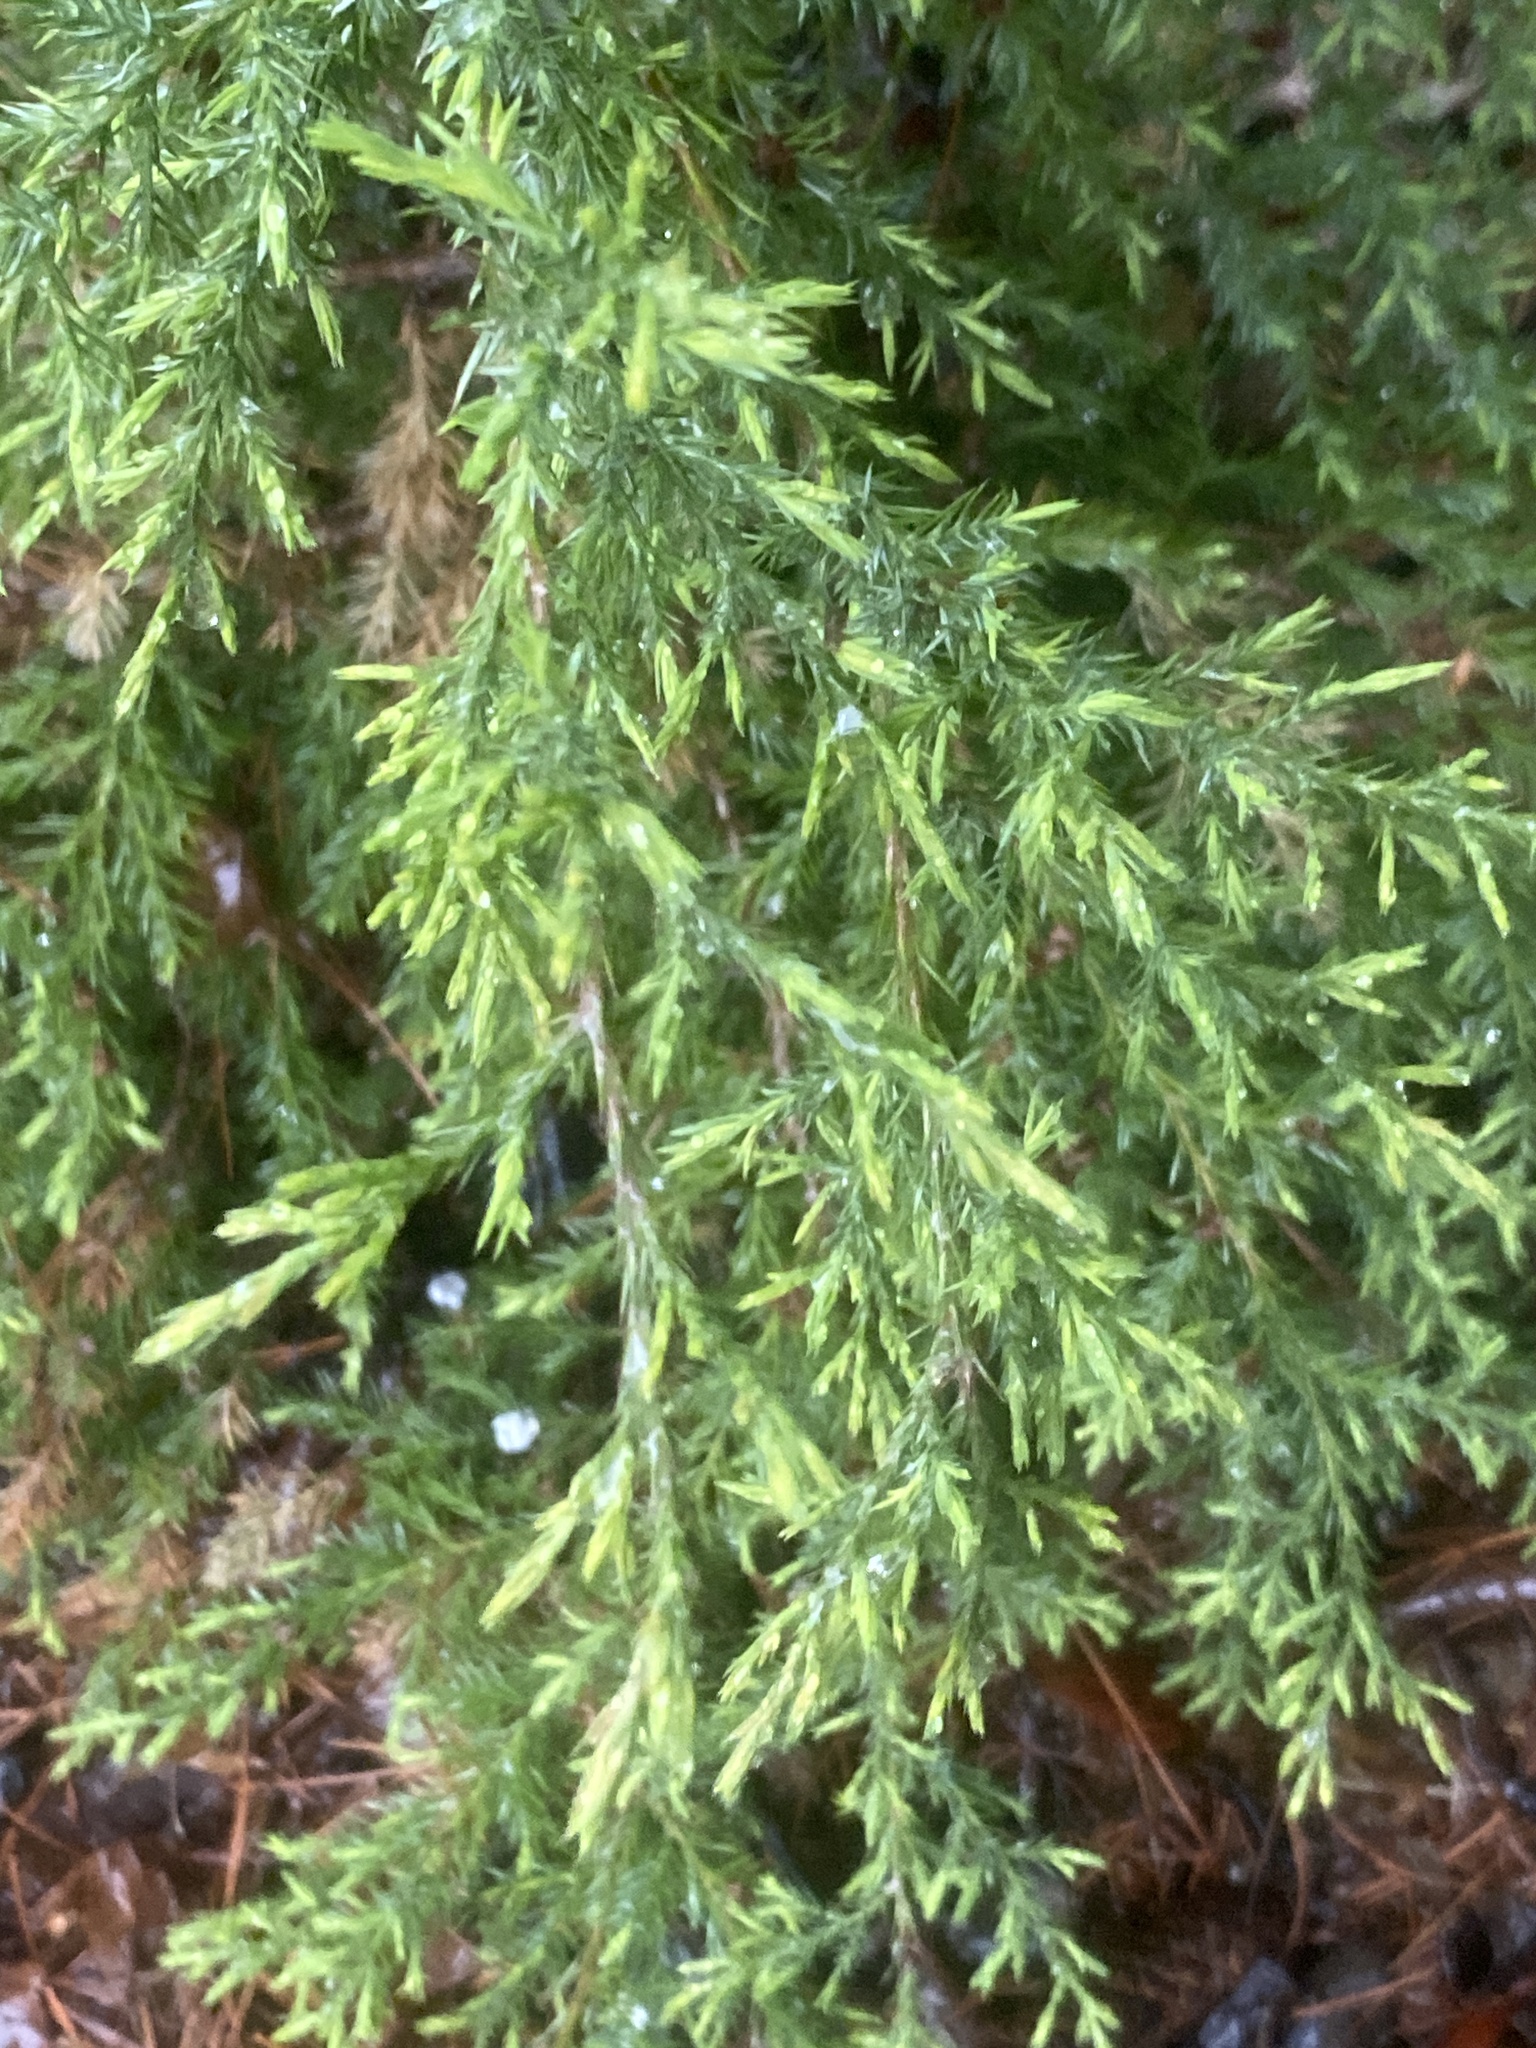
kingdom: Plantae
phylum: Tracheophyta
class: Pinopsida
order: Pinales
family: Cupressaceae
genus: Juniperus
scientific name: Juniperus virginiana
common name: Red juniper
